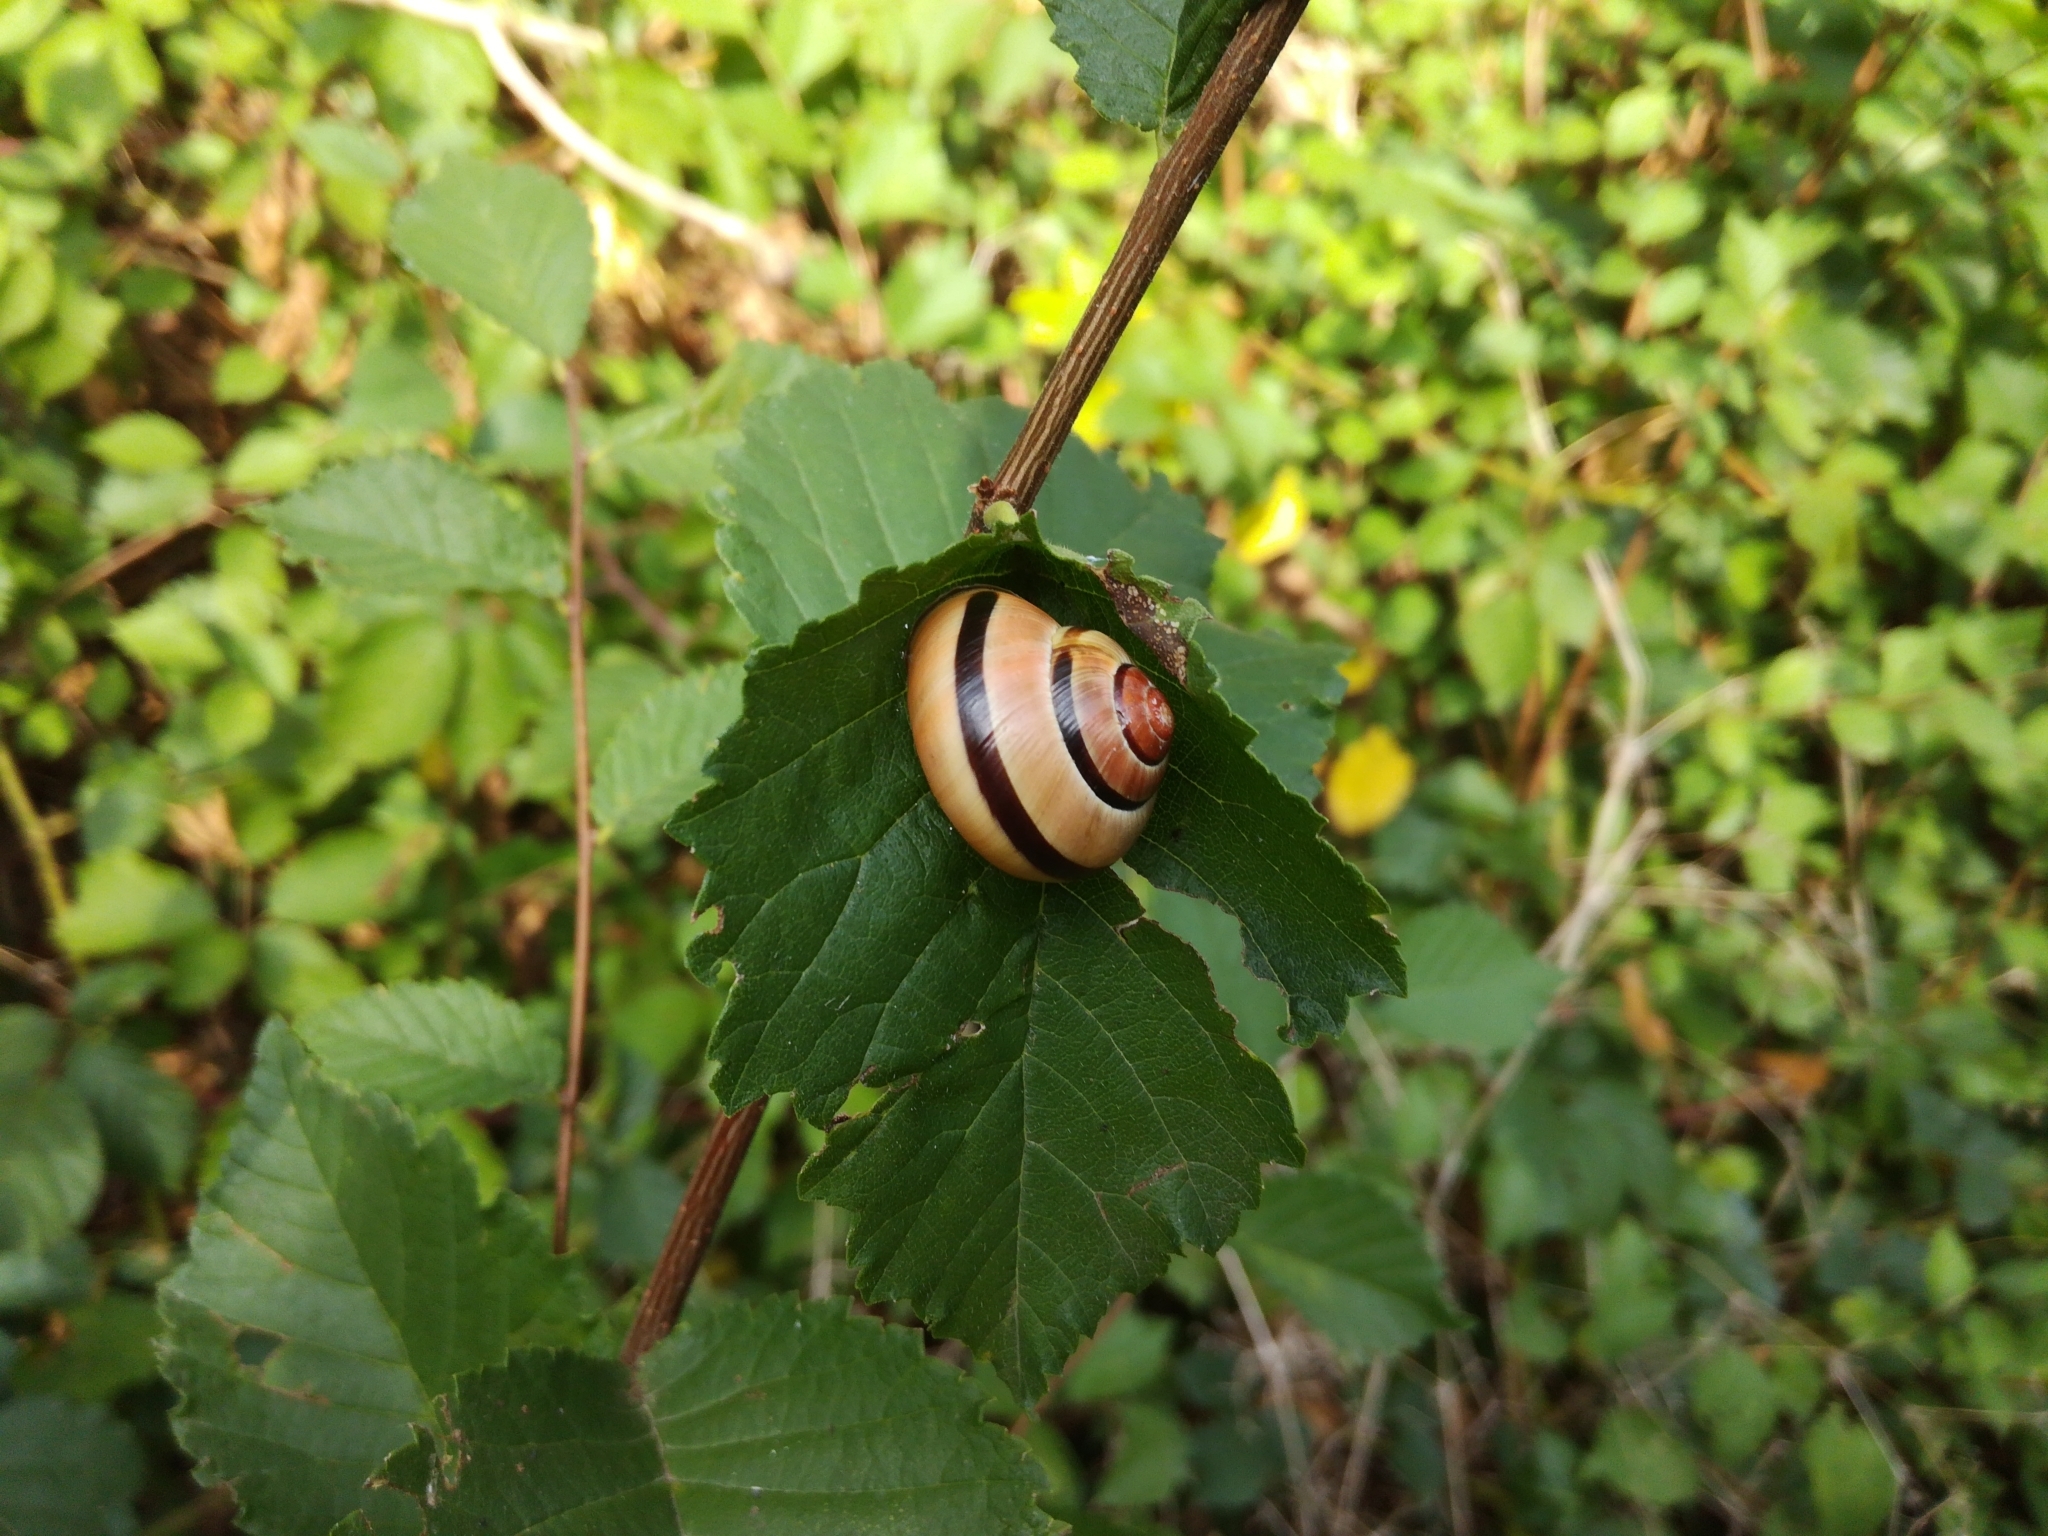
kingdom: Animalia
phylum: Mollusca
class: Gastropoda
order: Stylommatophora
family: Helicidae
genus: Cepaea
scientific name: Cepaea nemoralis
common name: Grovesnail
